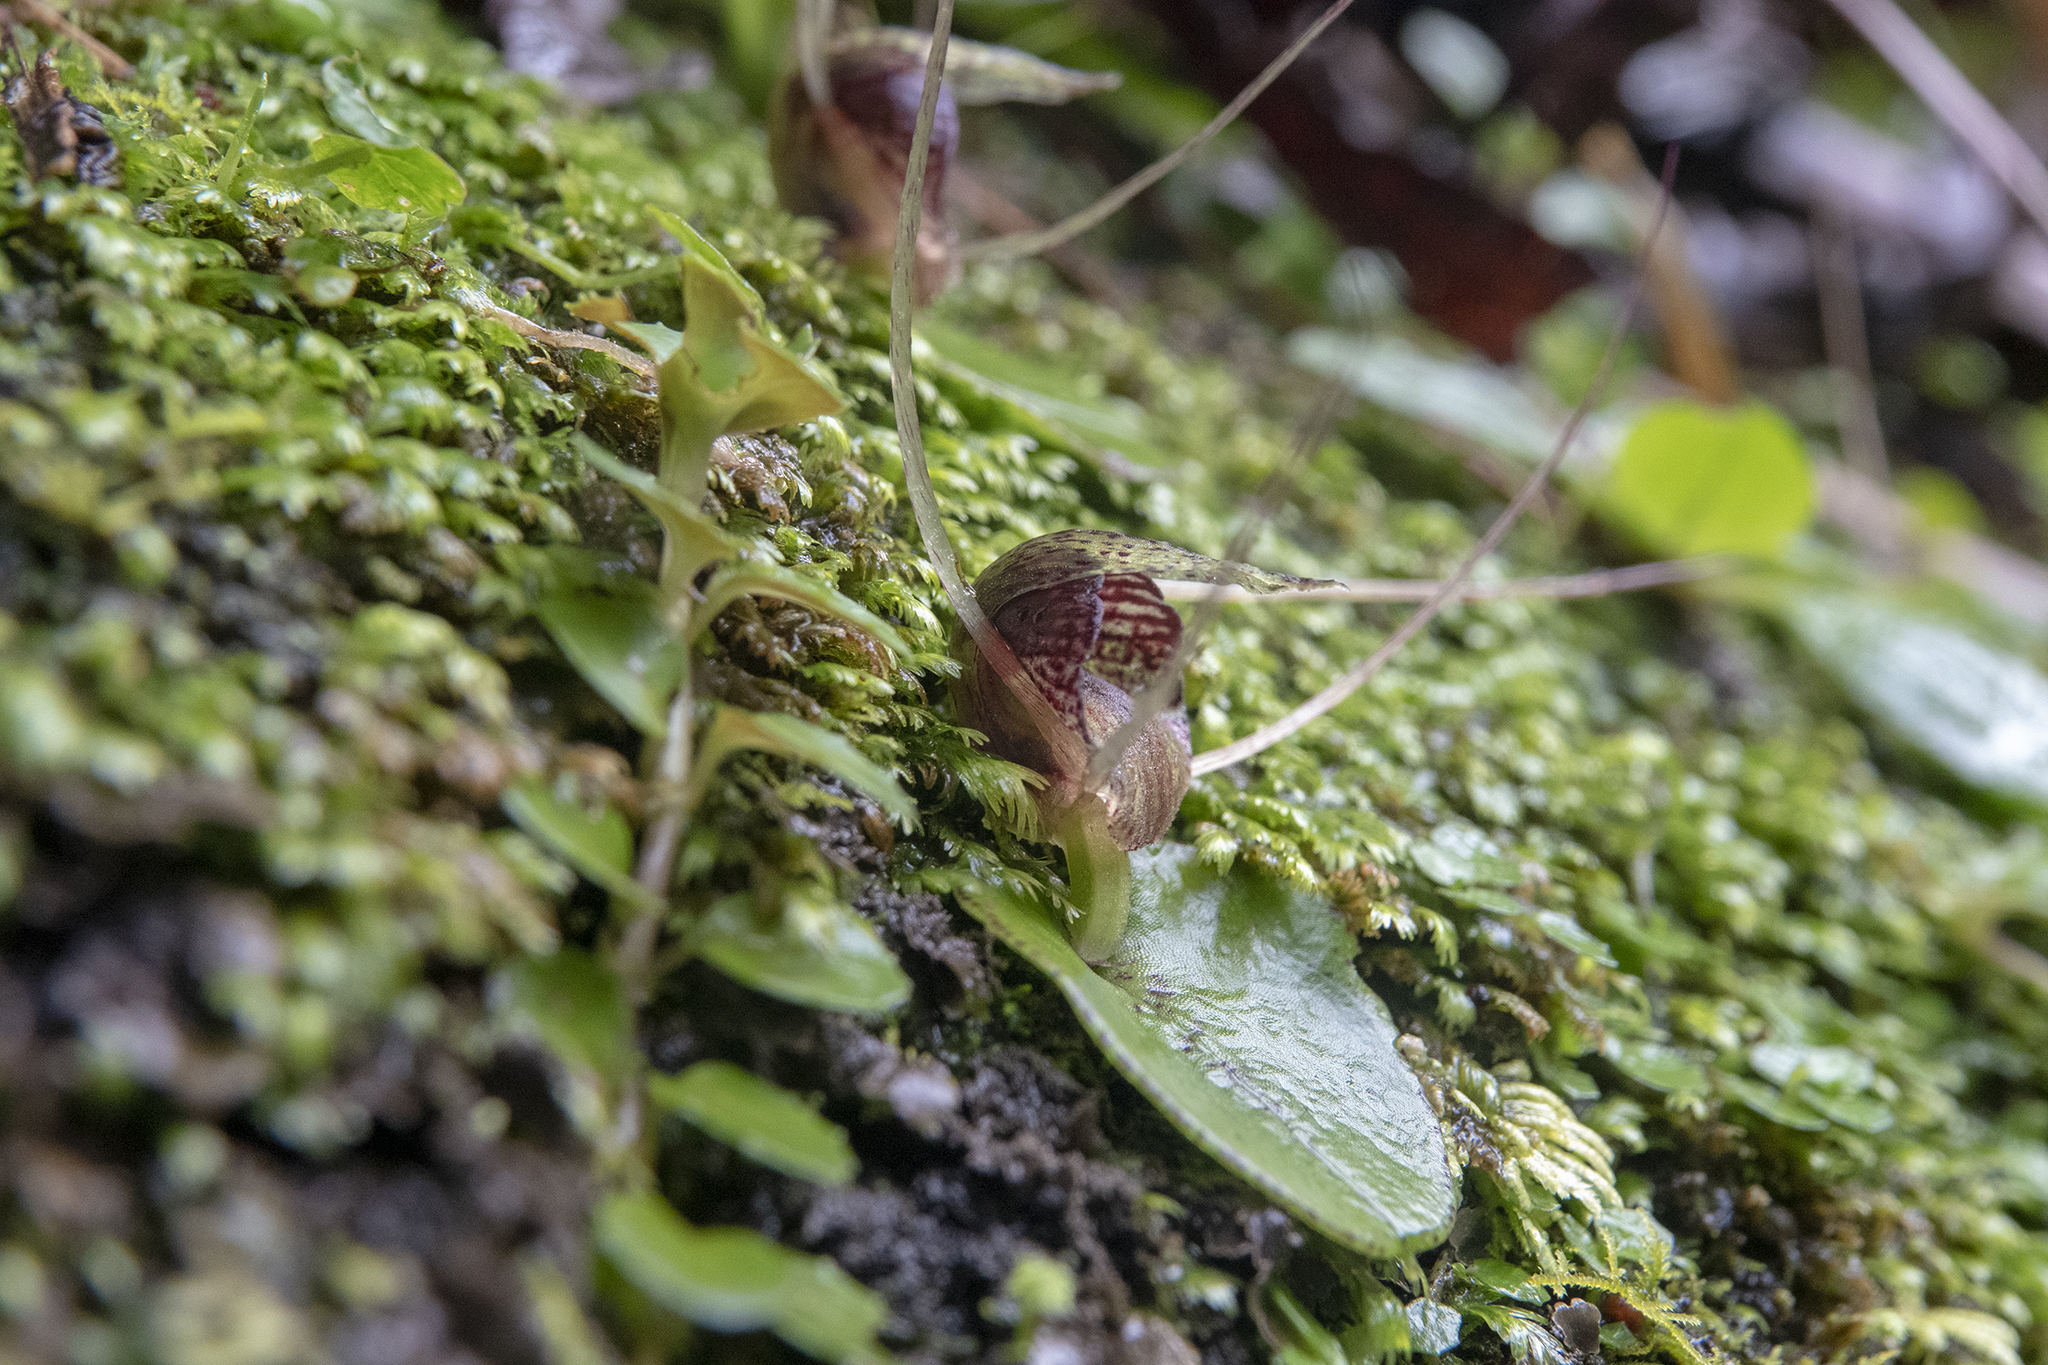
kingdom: Plantae
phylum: Tracheophyta
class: Liliopsida
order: Asparagales
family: Orchidaceae
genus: Corybas
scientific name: Corybas iridescens
